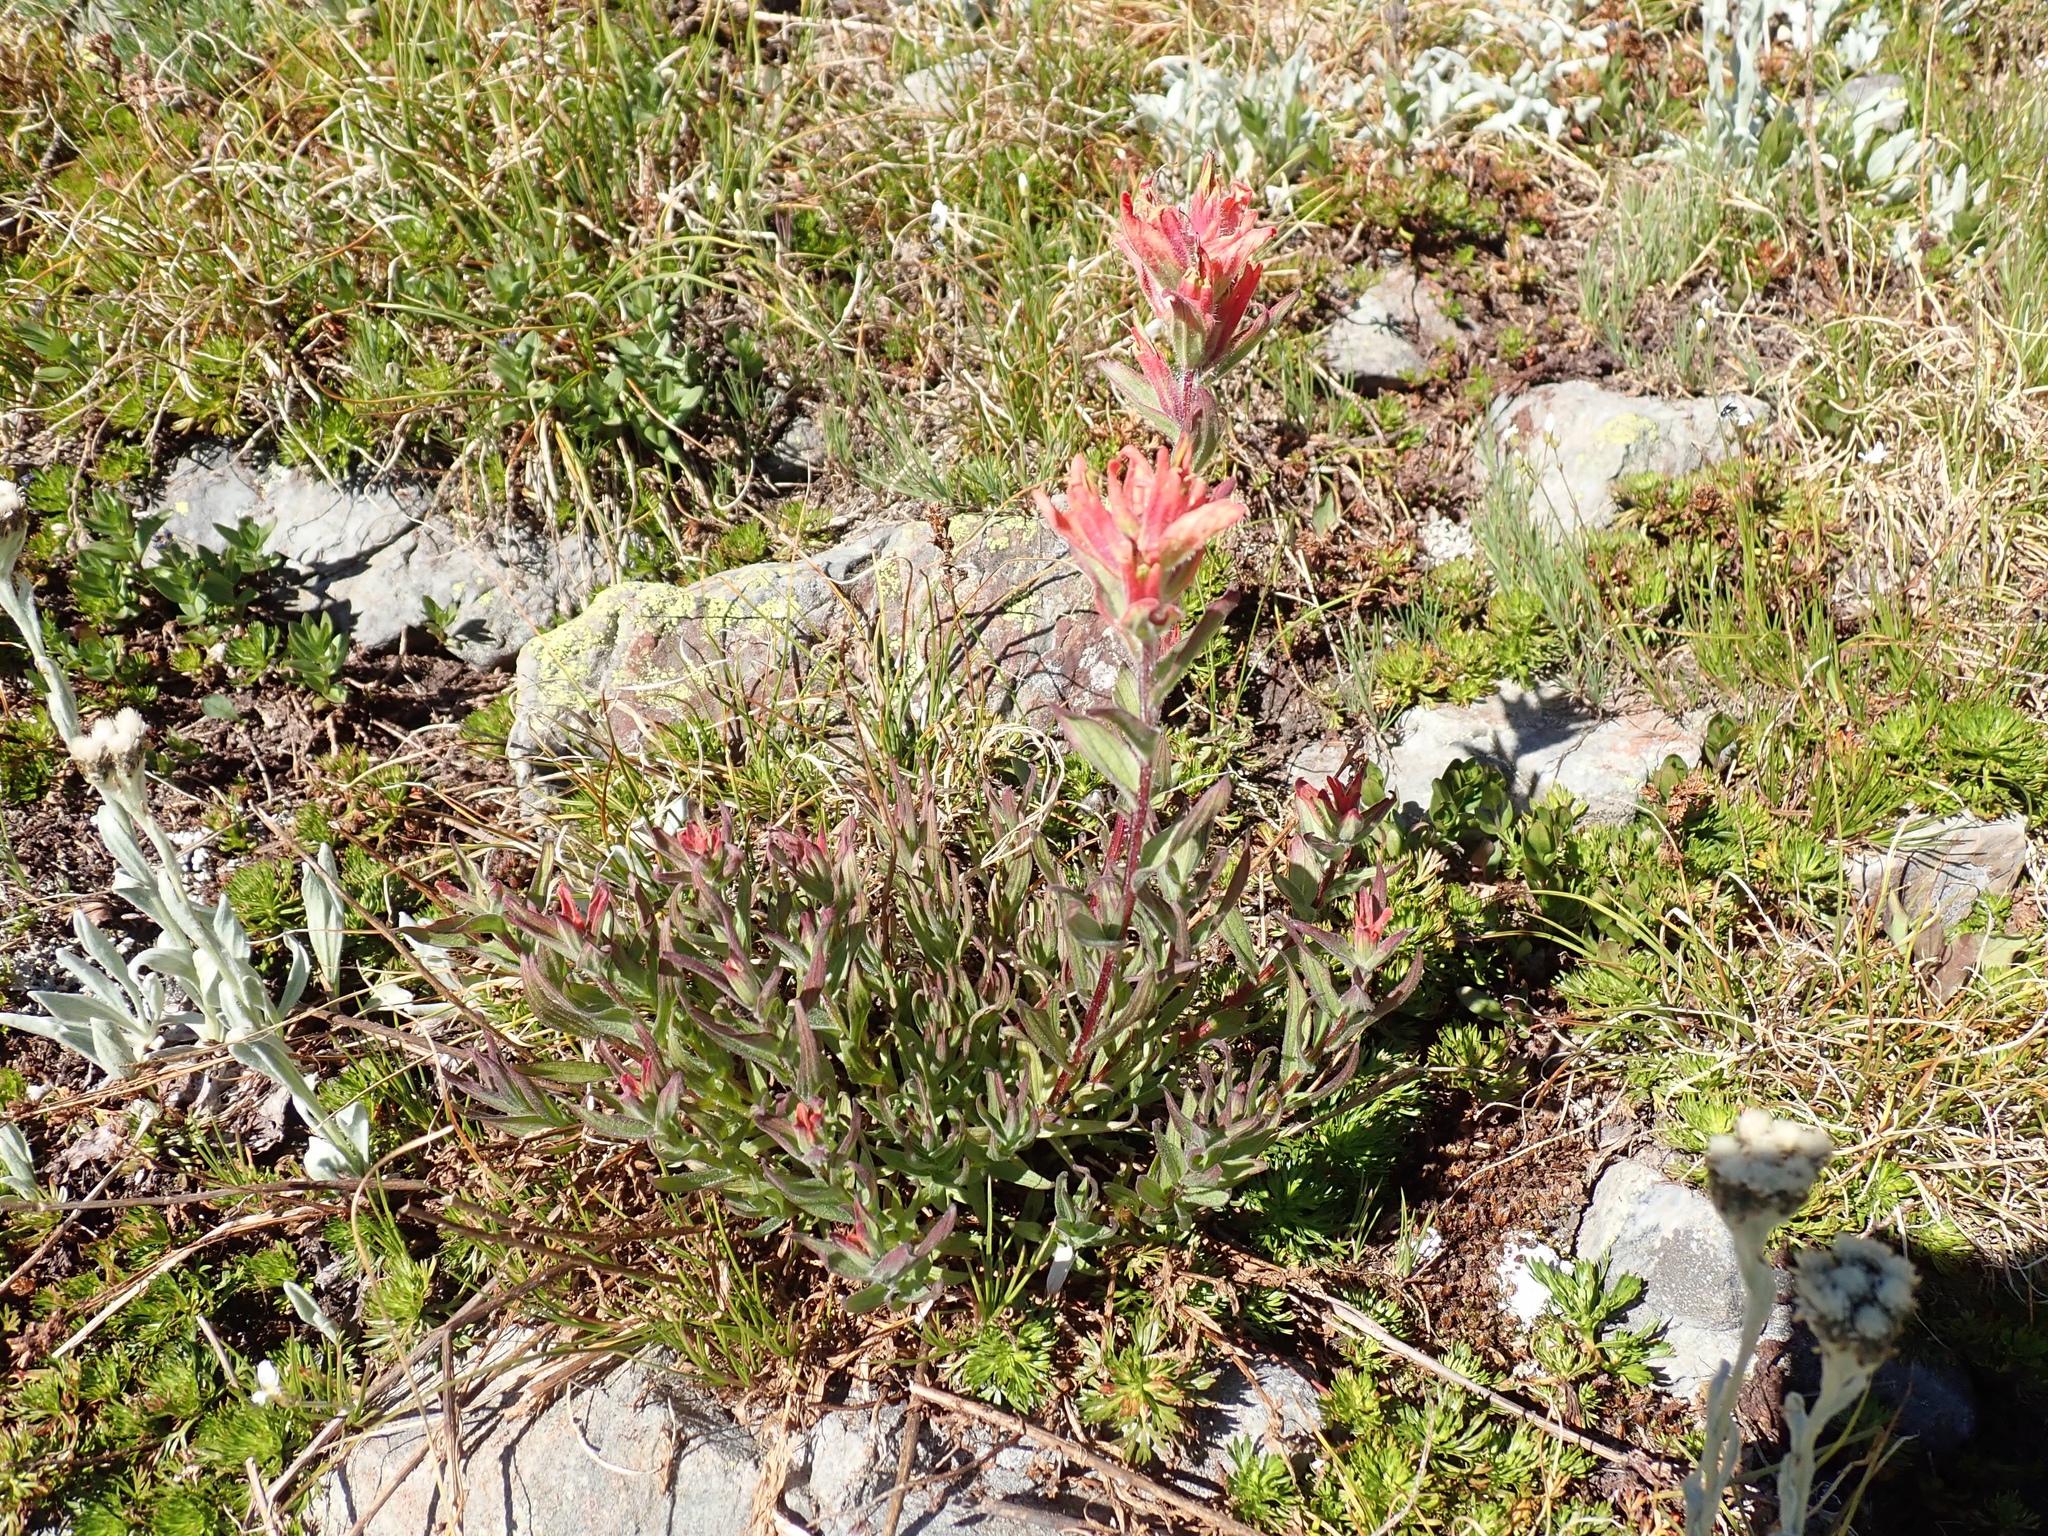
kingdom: Plantae
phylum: Tracheophyta
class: Magnoliopsida
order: Lamiales
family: Orobanchaceae
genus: Castilleja
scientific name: Castilleja elmeri
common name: Elmer's paintbrush
